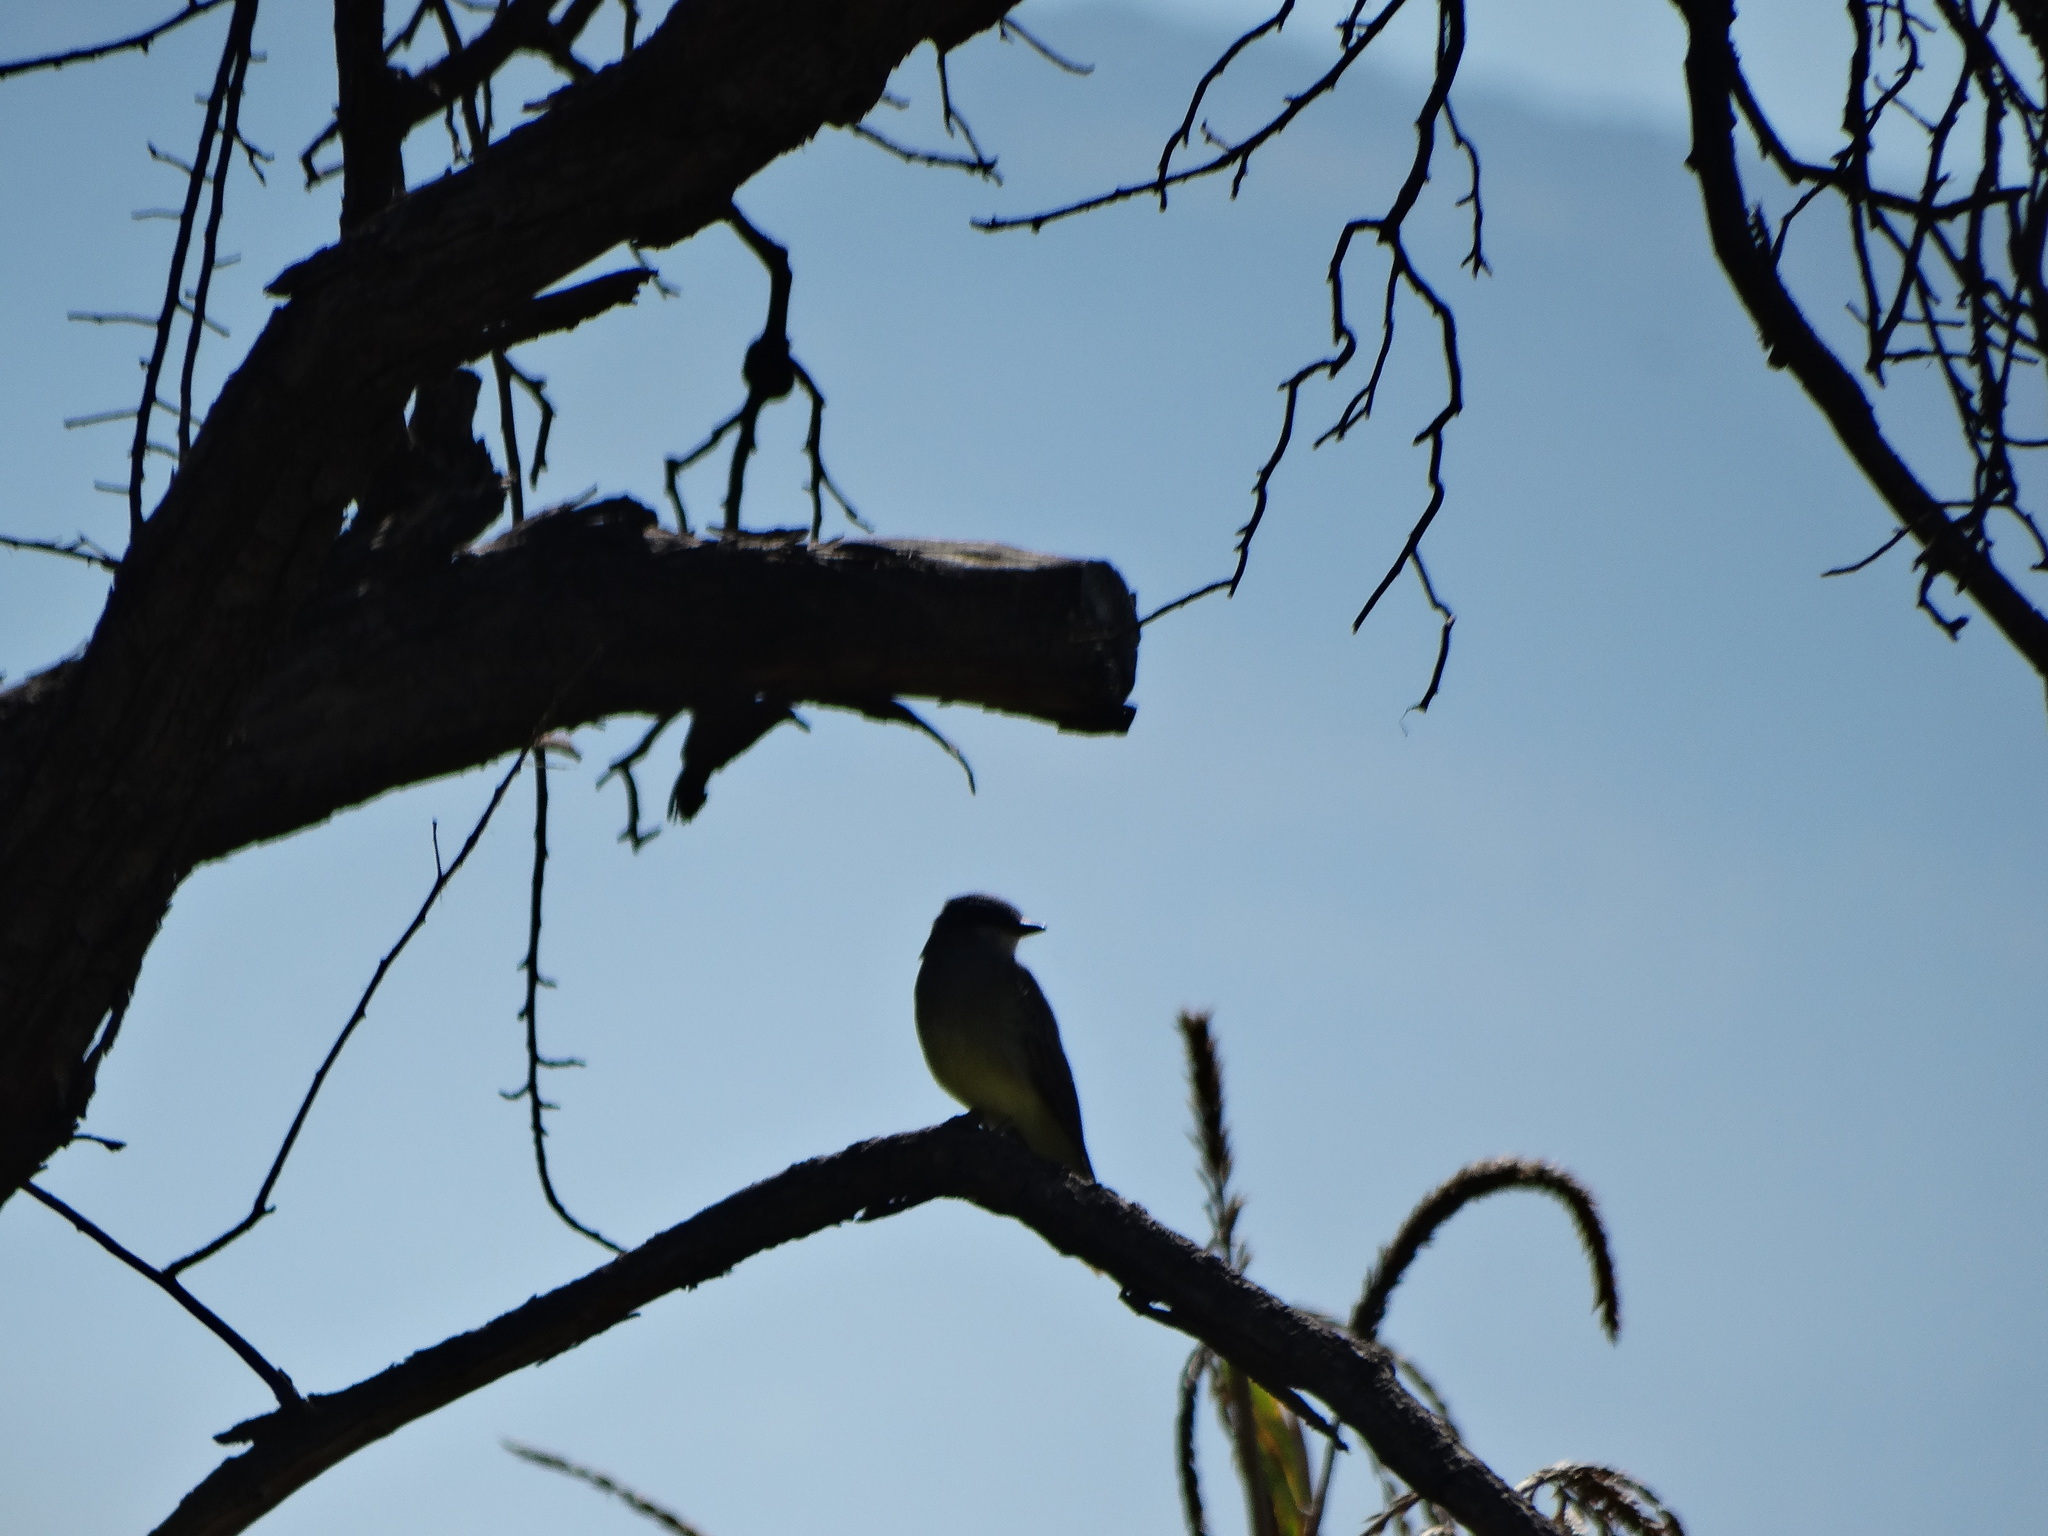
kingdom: Animalia
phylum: Chordata
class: Aves
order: Passeriformes
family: Tyrannidae
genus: Tyrannus
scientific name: Tyrannus vociferans
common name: Cassin's kingbird
